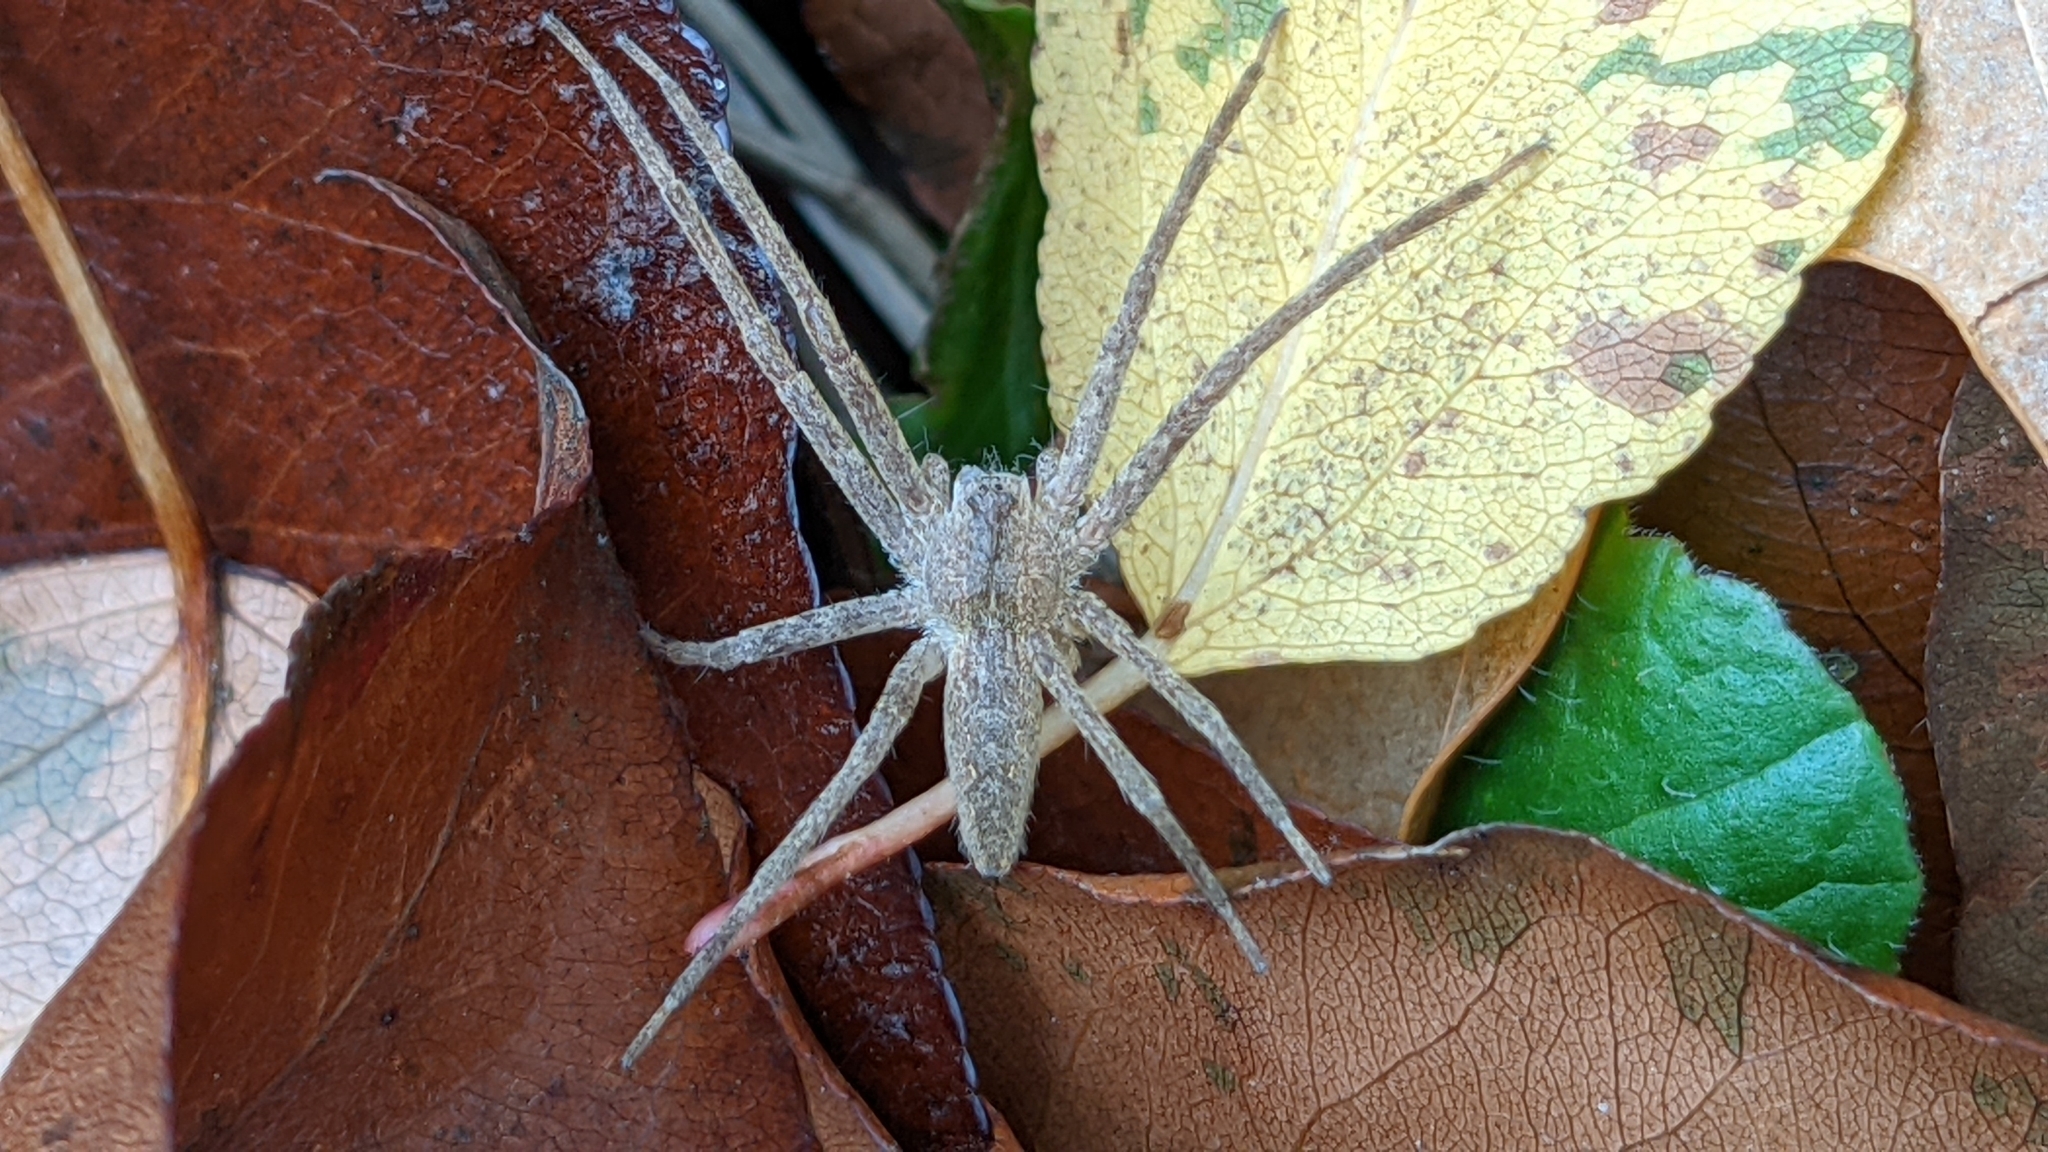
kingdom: Animalia
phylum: Arthropoda
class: Arachnida
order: Araneae
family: Pisauridae
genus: Pisaurina
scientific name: Pisaurina mira
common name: American nursery web spider
